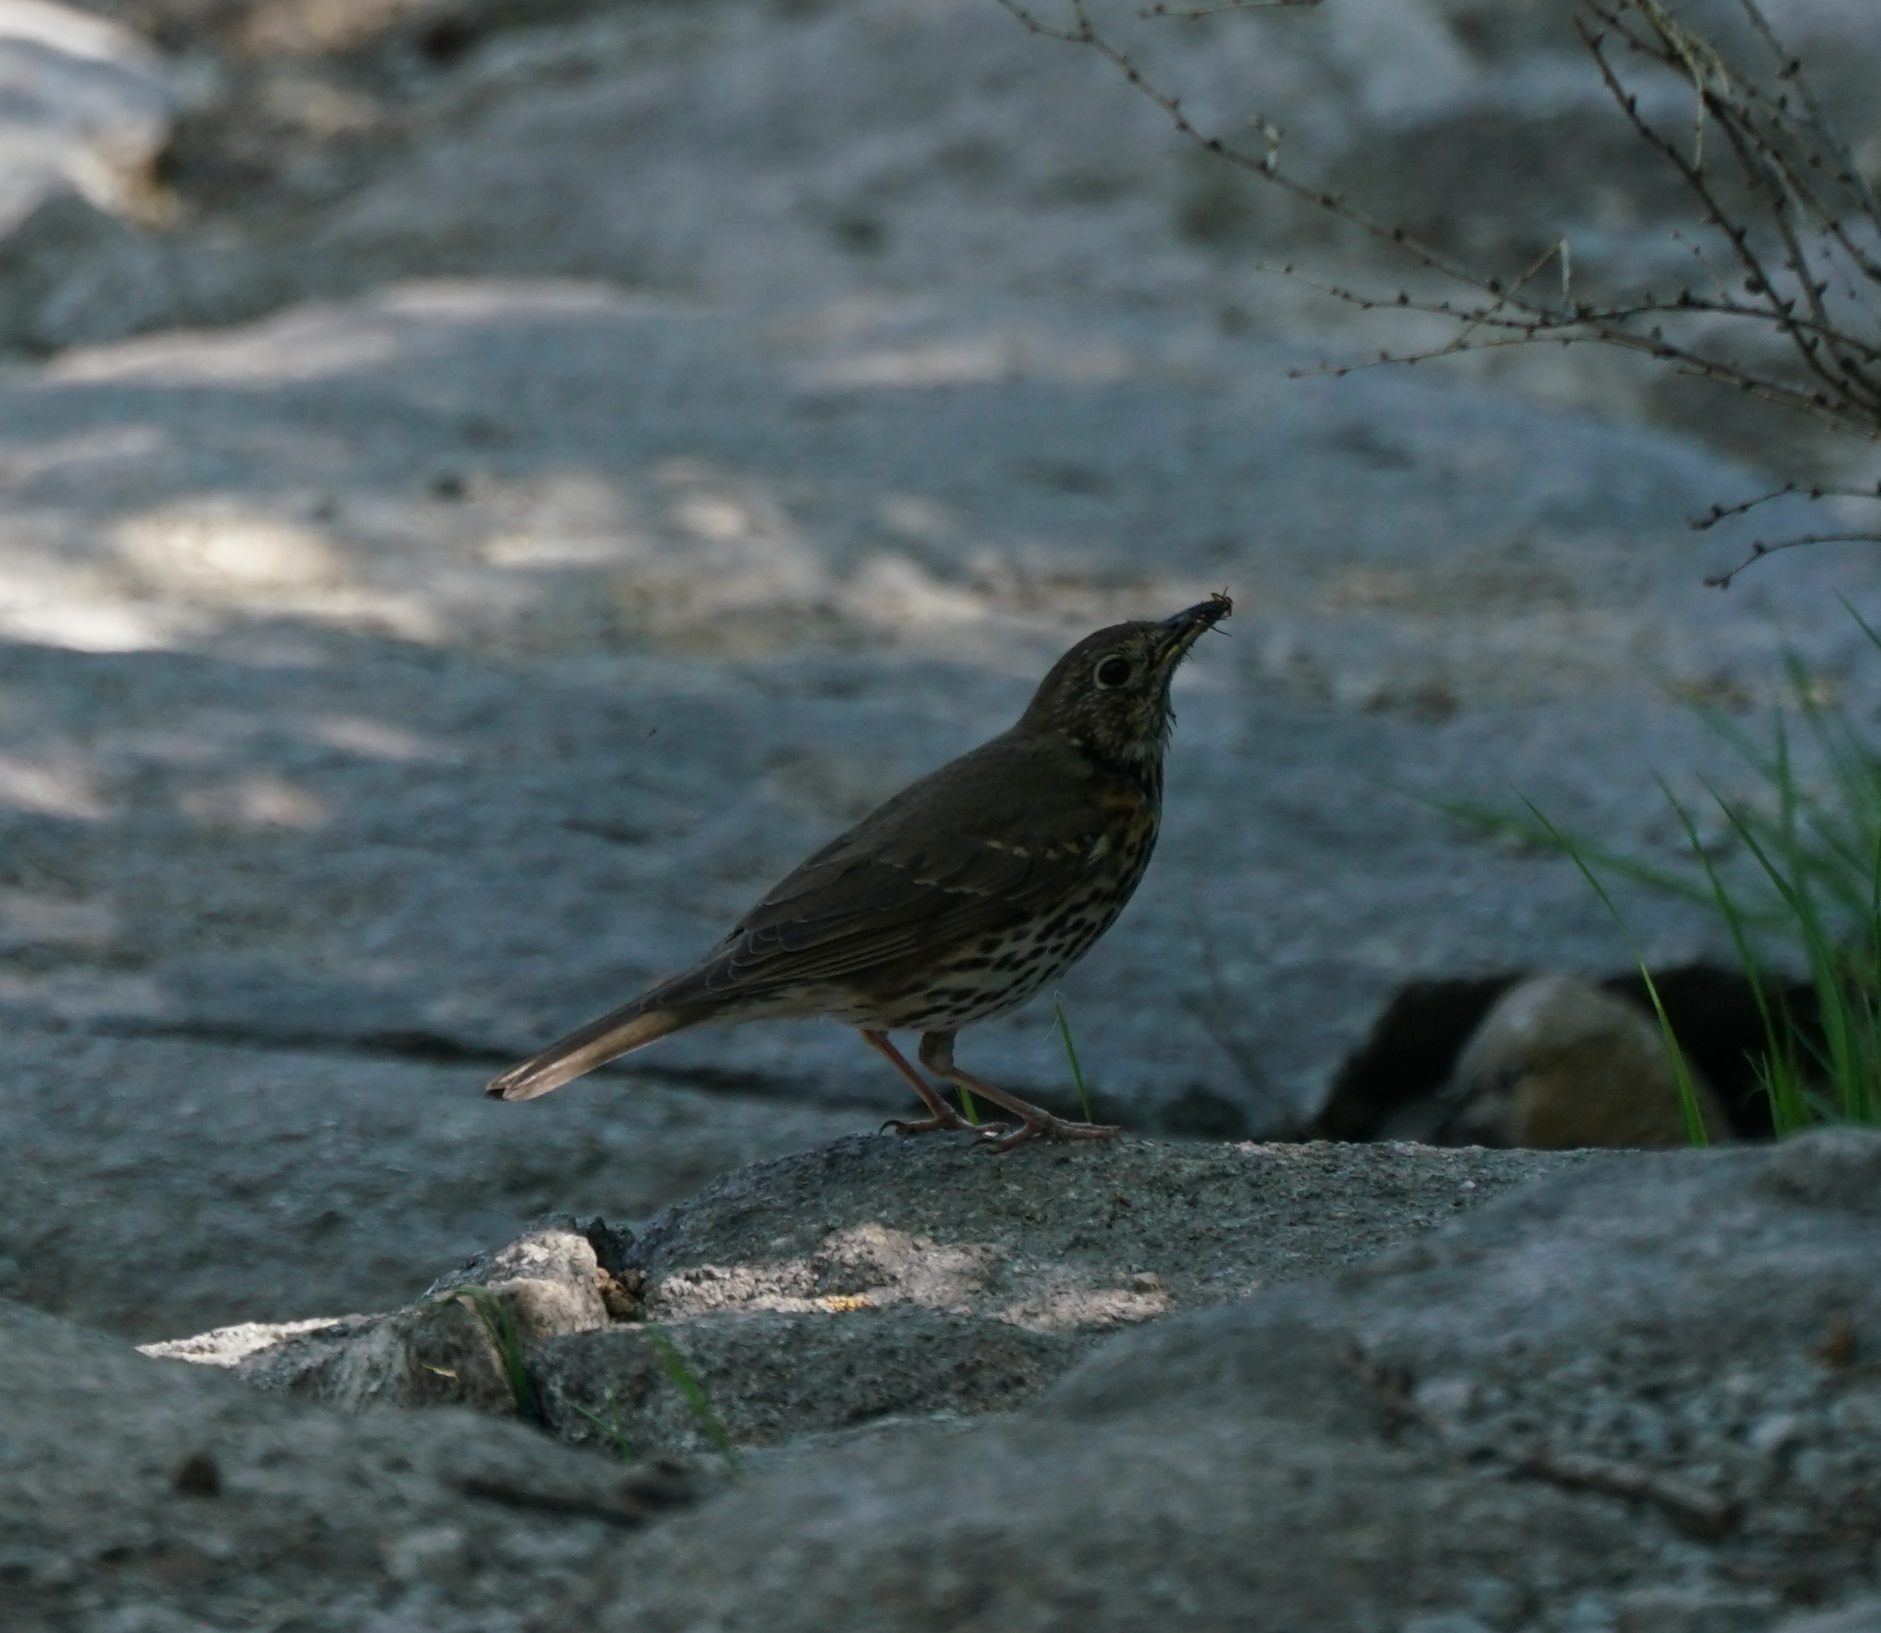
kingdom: Animalia
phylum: Chordata
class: Aves
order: Passeriformes
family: Turdidae
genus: Turdus
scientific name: Turdus philomelos
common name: Song thrush
